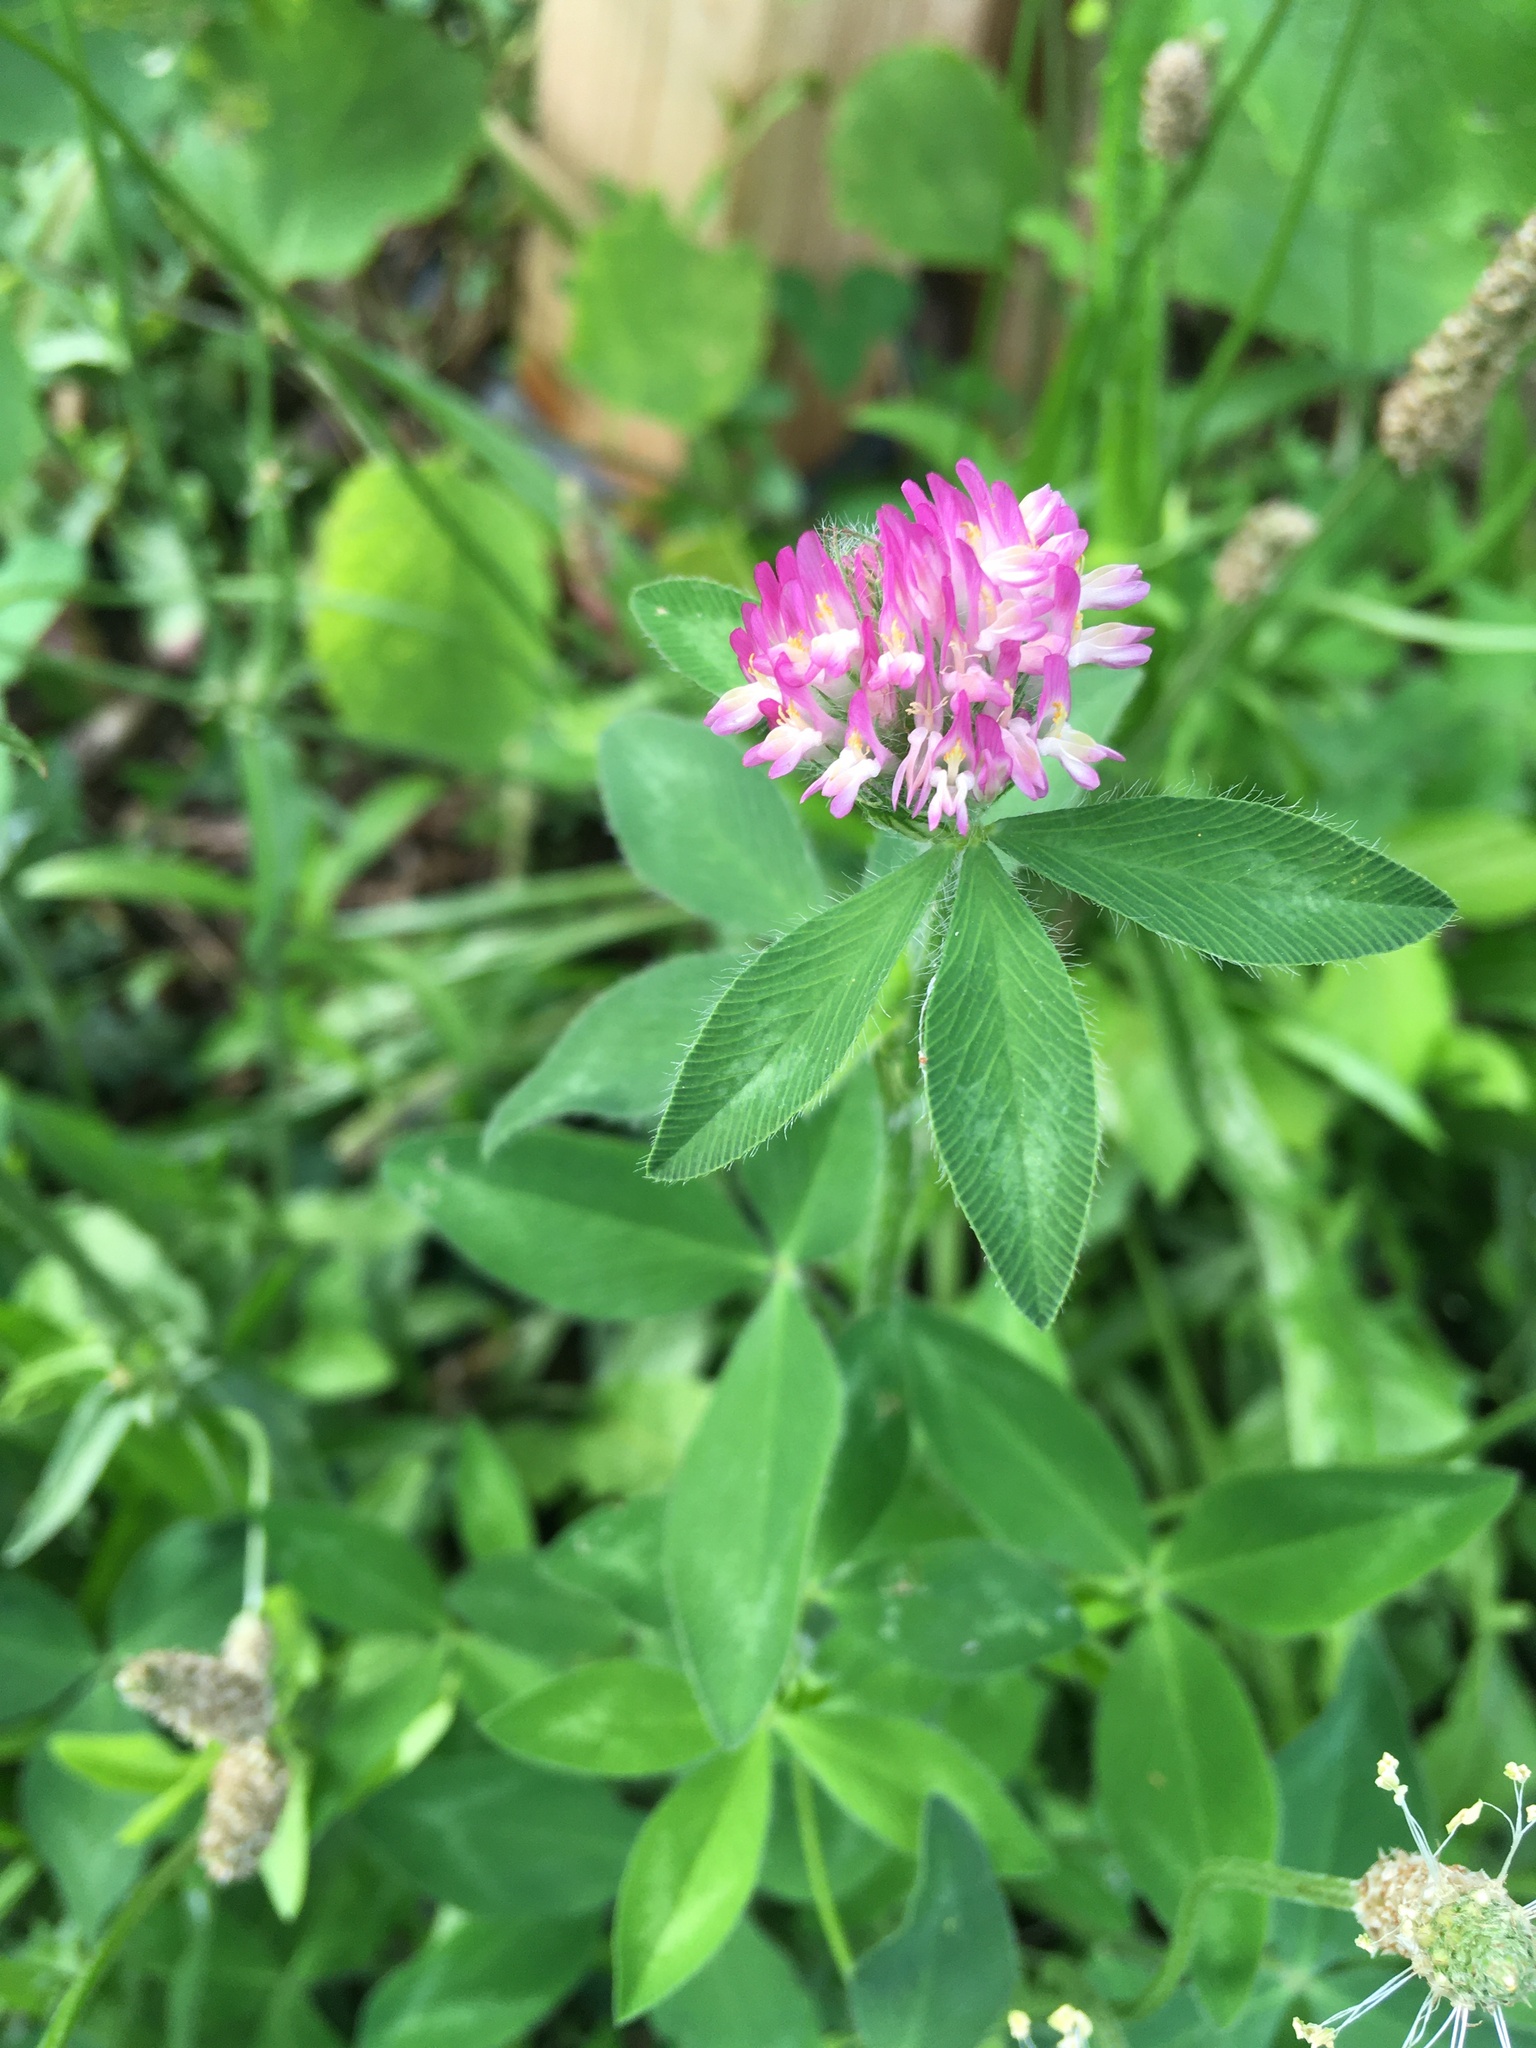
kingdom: Plantae
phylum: Tracheophyta
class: Magnoliopsida
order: Fabales
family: Fabaceae
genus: Trifolium
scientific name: Trifolium pratense
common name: Red clover
